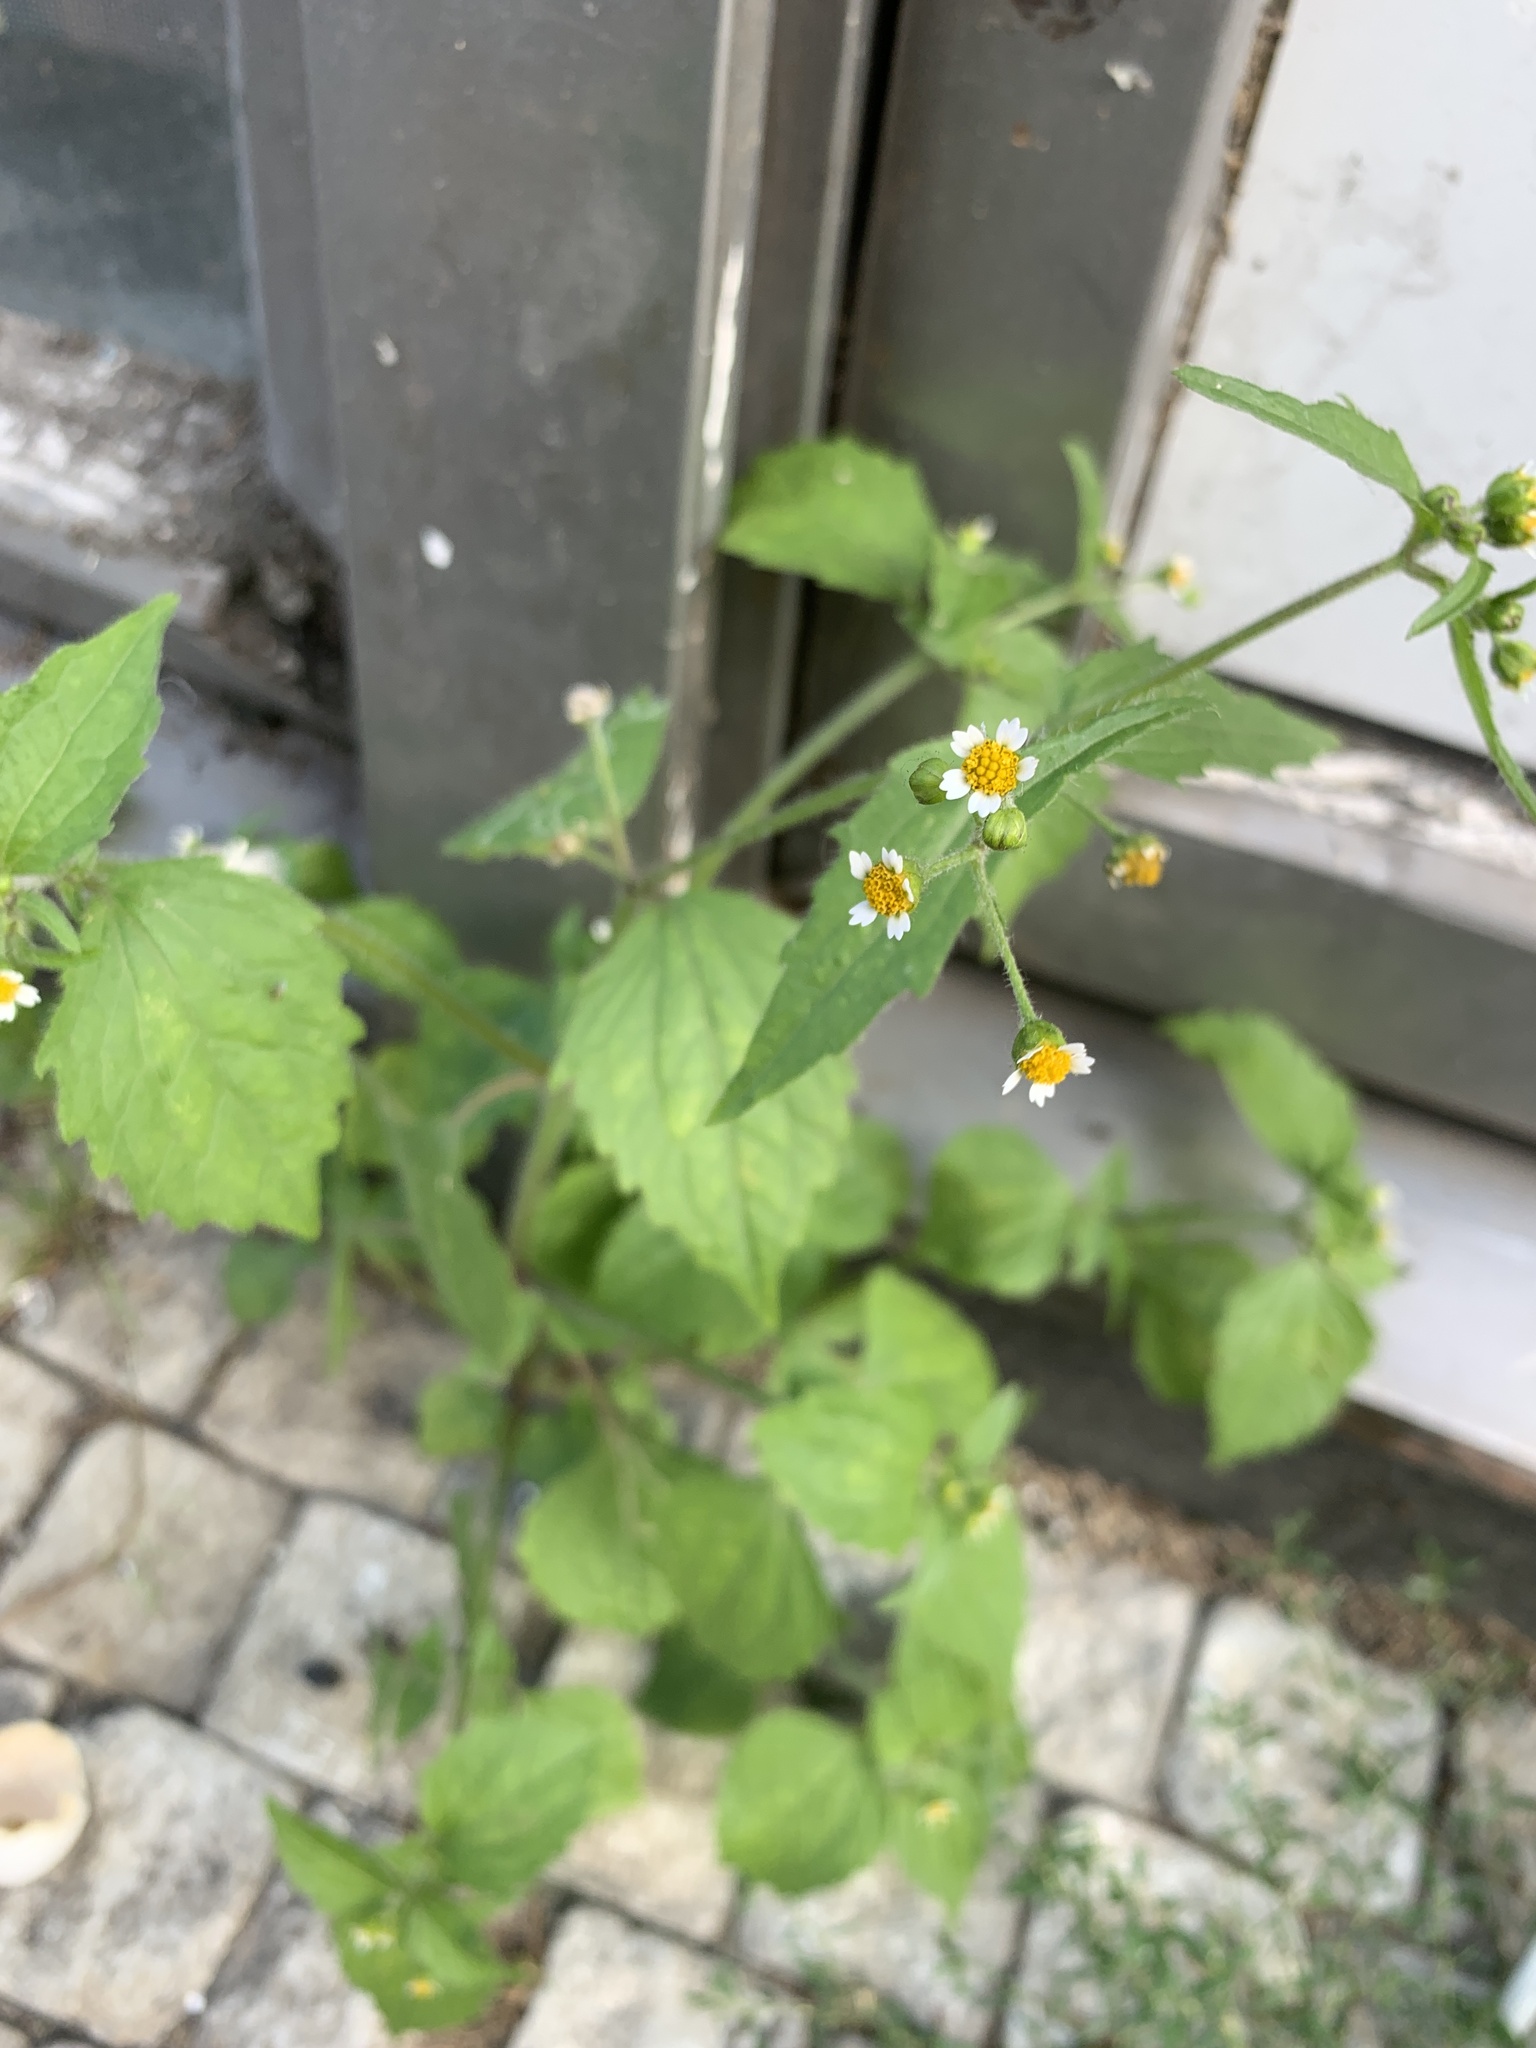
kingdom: Plantae
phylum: Tracheophyta
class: Magnoliopsida
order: Asterales
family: Asteraceae
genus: Galinsoga
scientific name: Galinsoga quadriradiata
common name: Shaggy soldier
